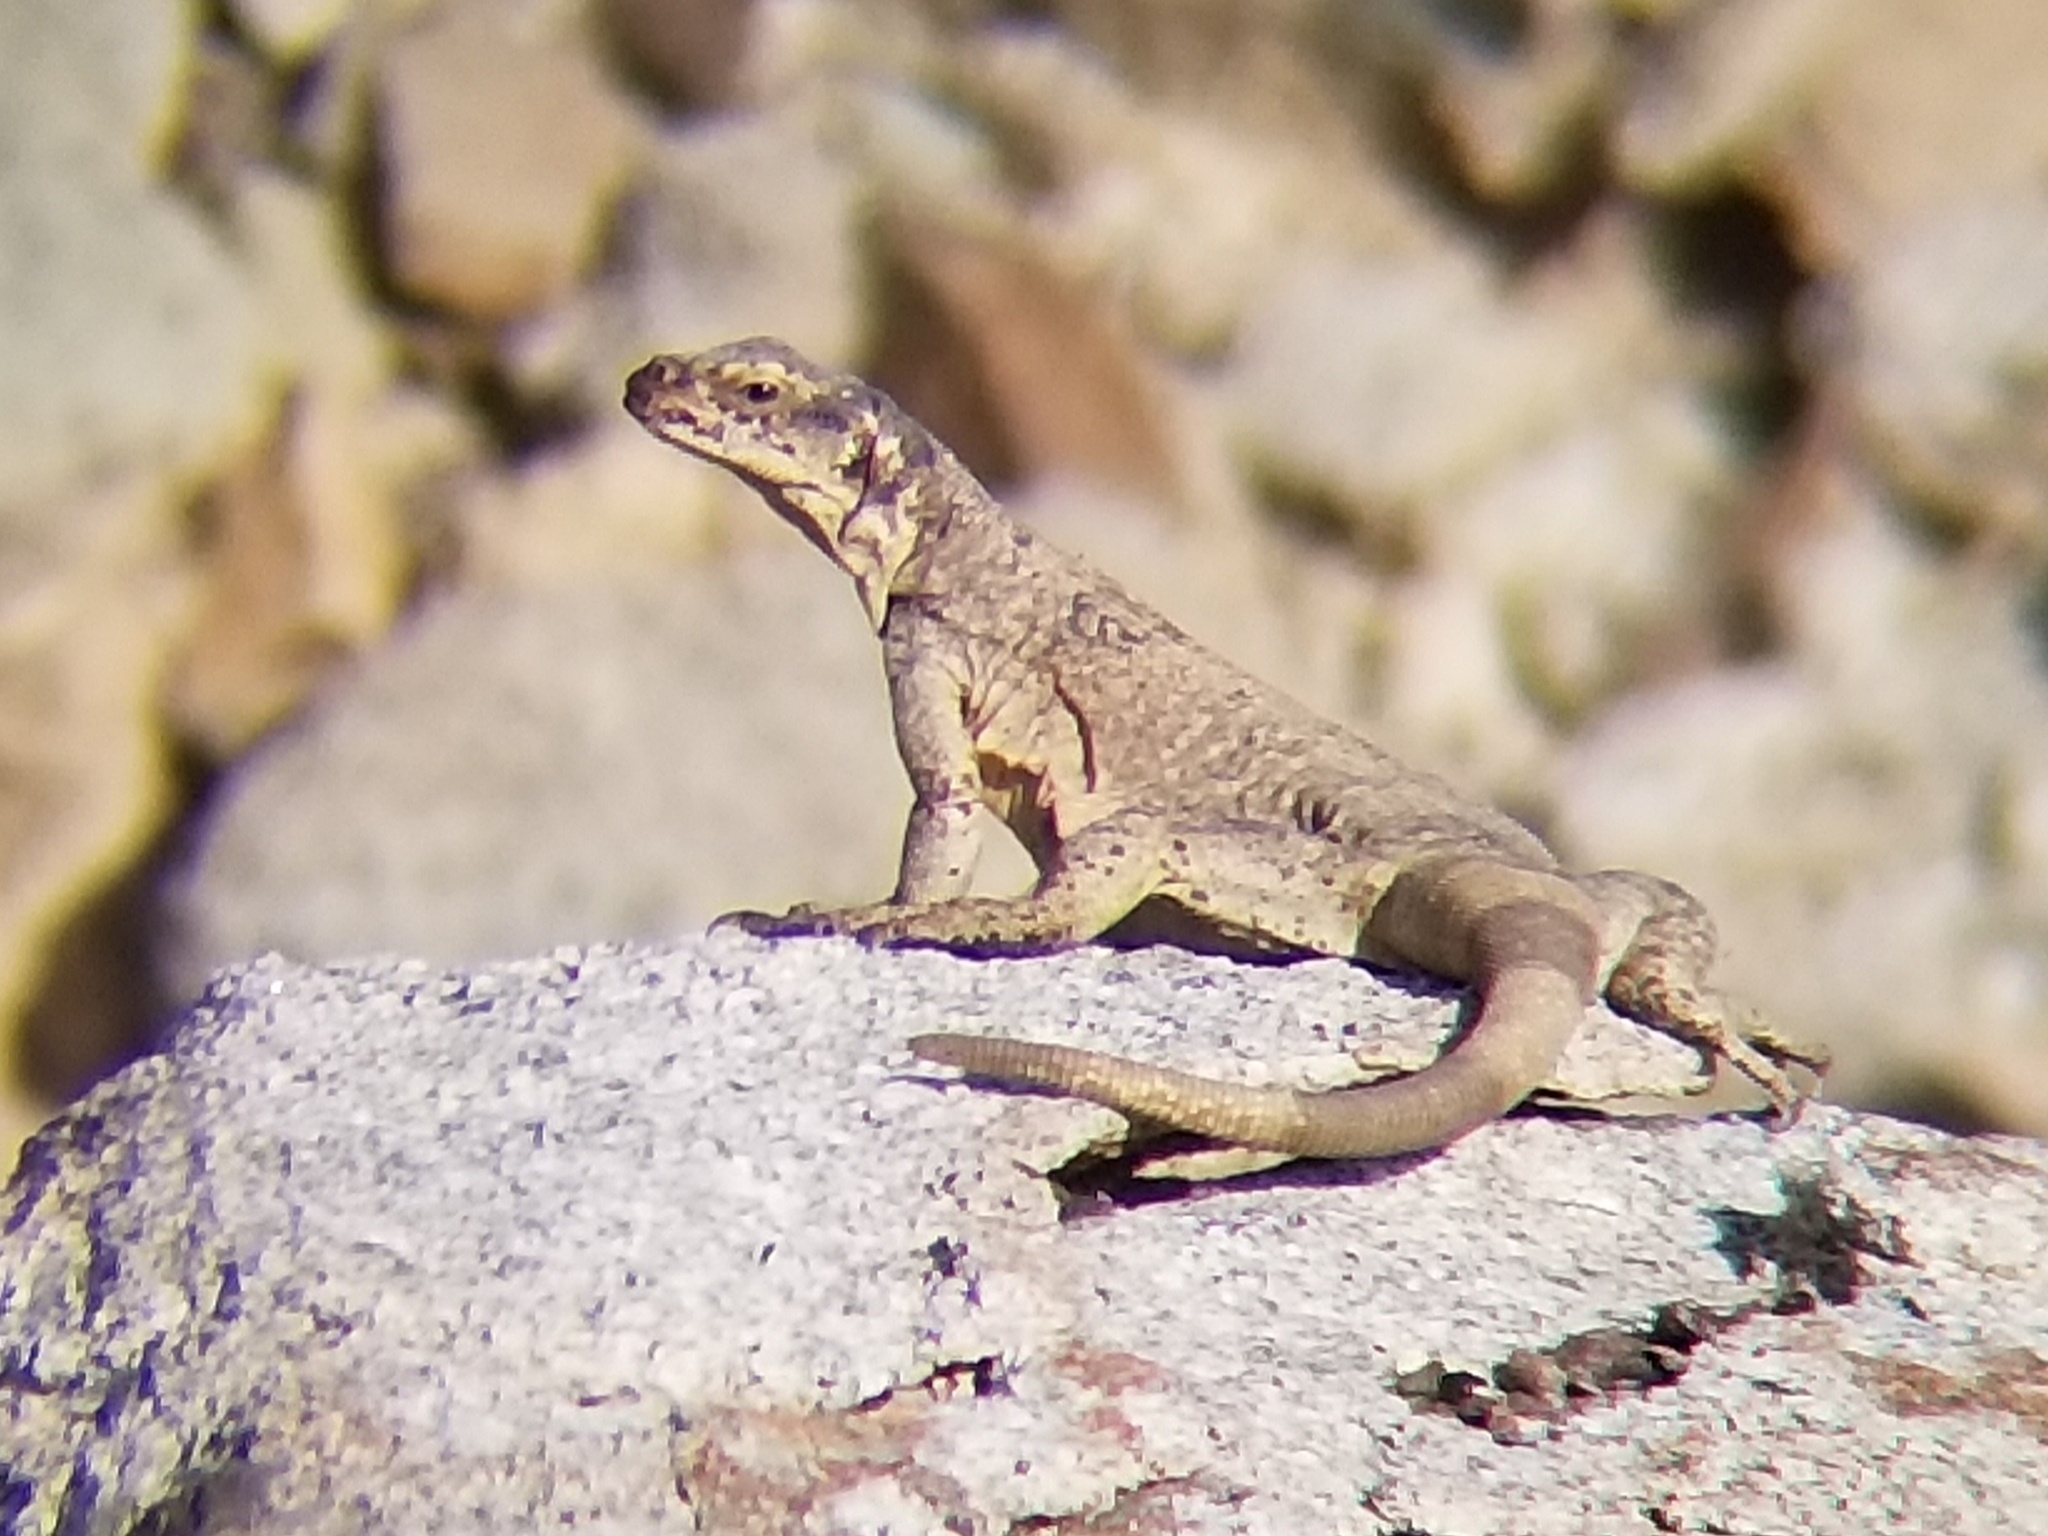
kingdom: Animalia
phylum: Chordata
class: Squamata
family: Iguanidae
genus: Sauromalus
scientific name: Sauromalus ater
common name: Northern chuckwalla
